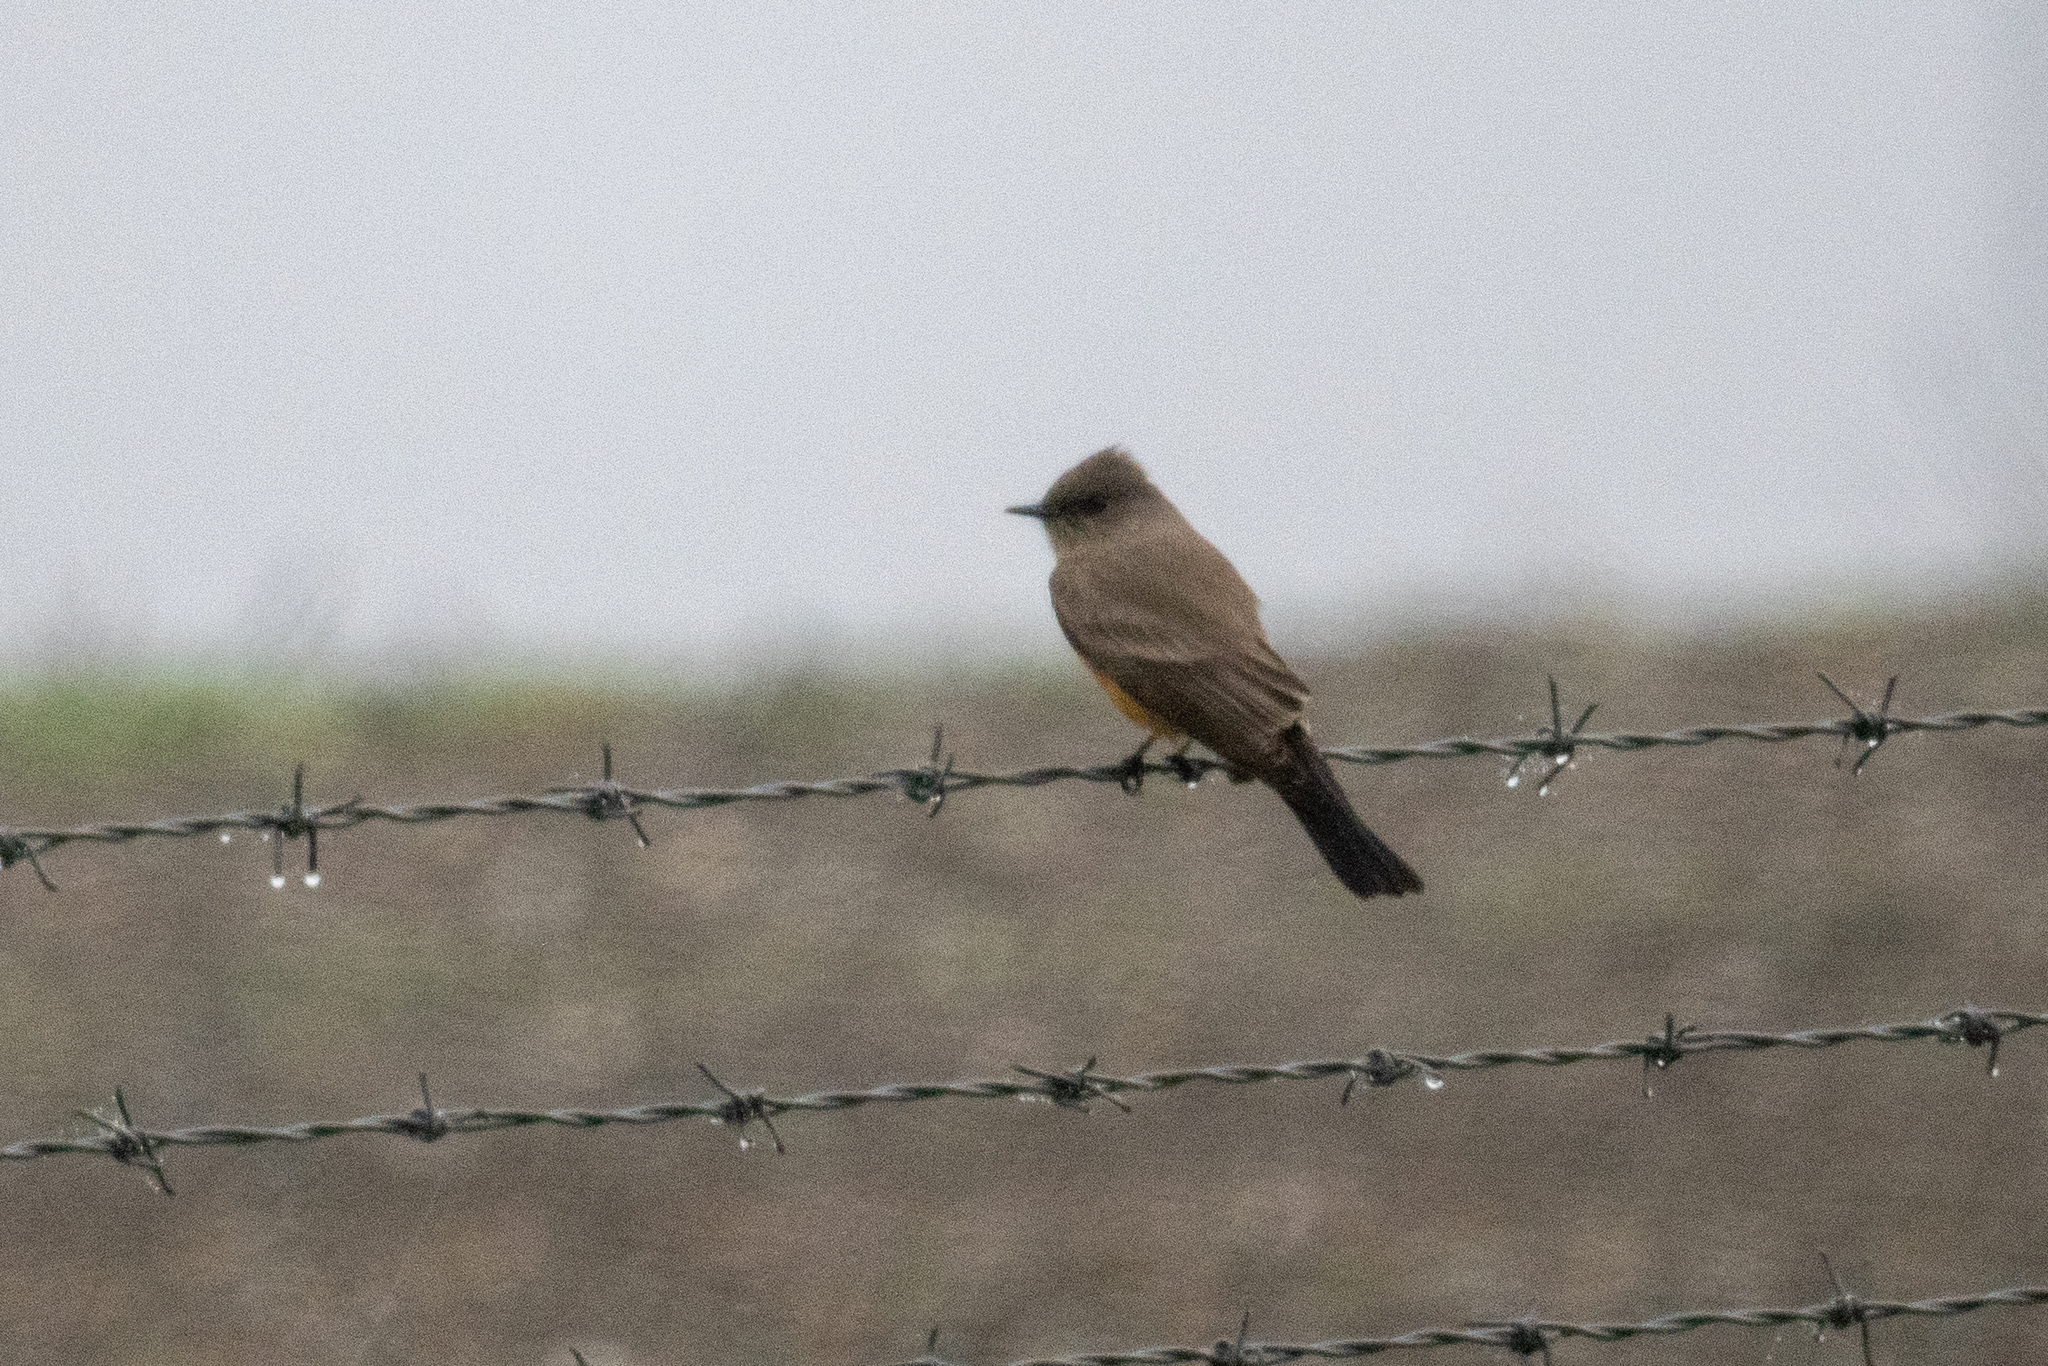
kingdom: Animalia
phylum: Chordata
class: Aves
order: Passeriformes
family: Tyrannidae
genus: Sayornis
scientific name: Sayornis saya
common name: Say's phoebe
